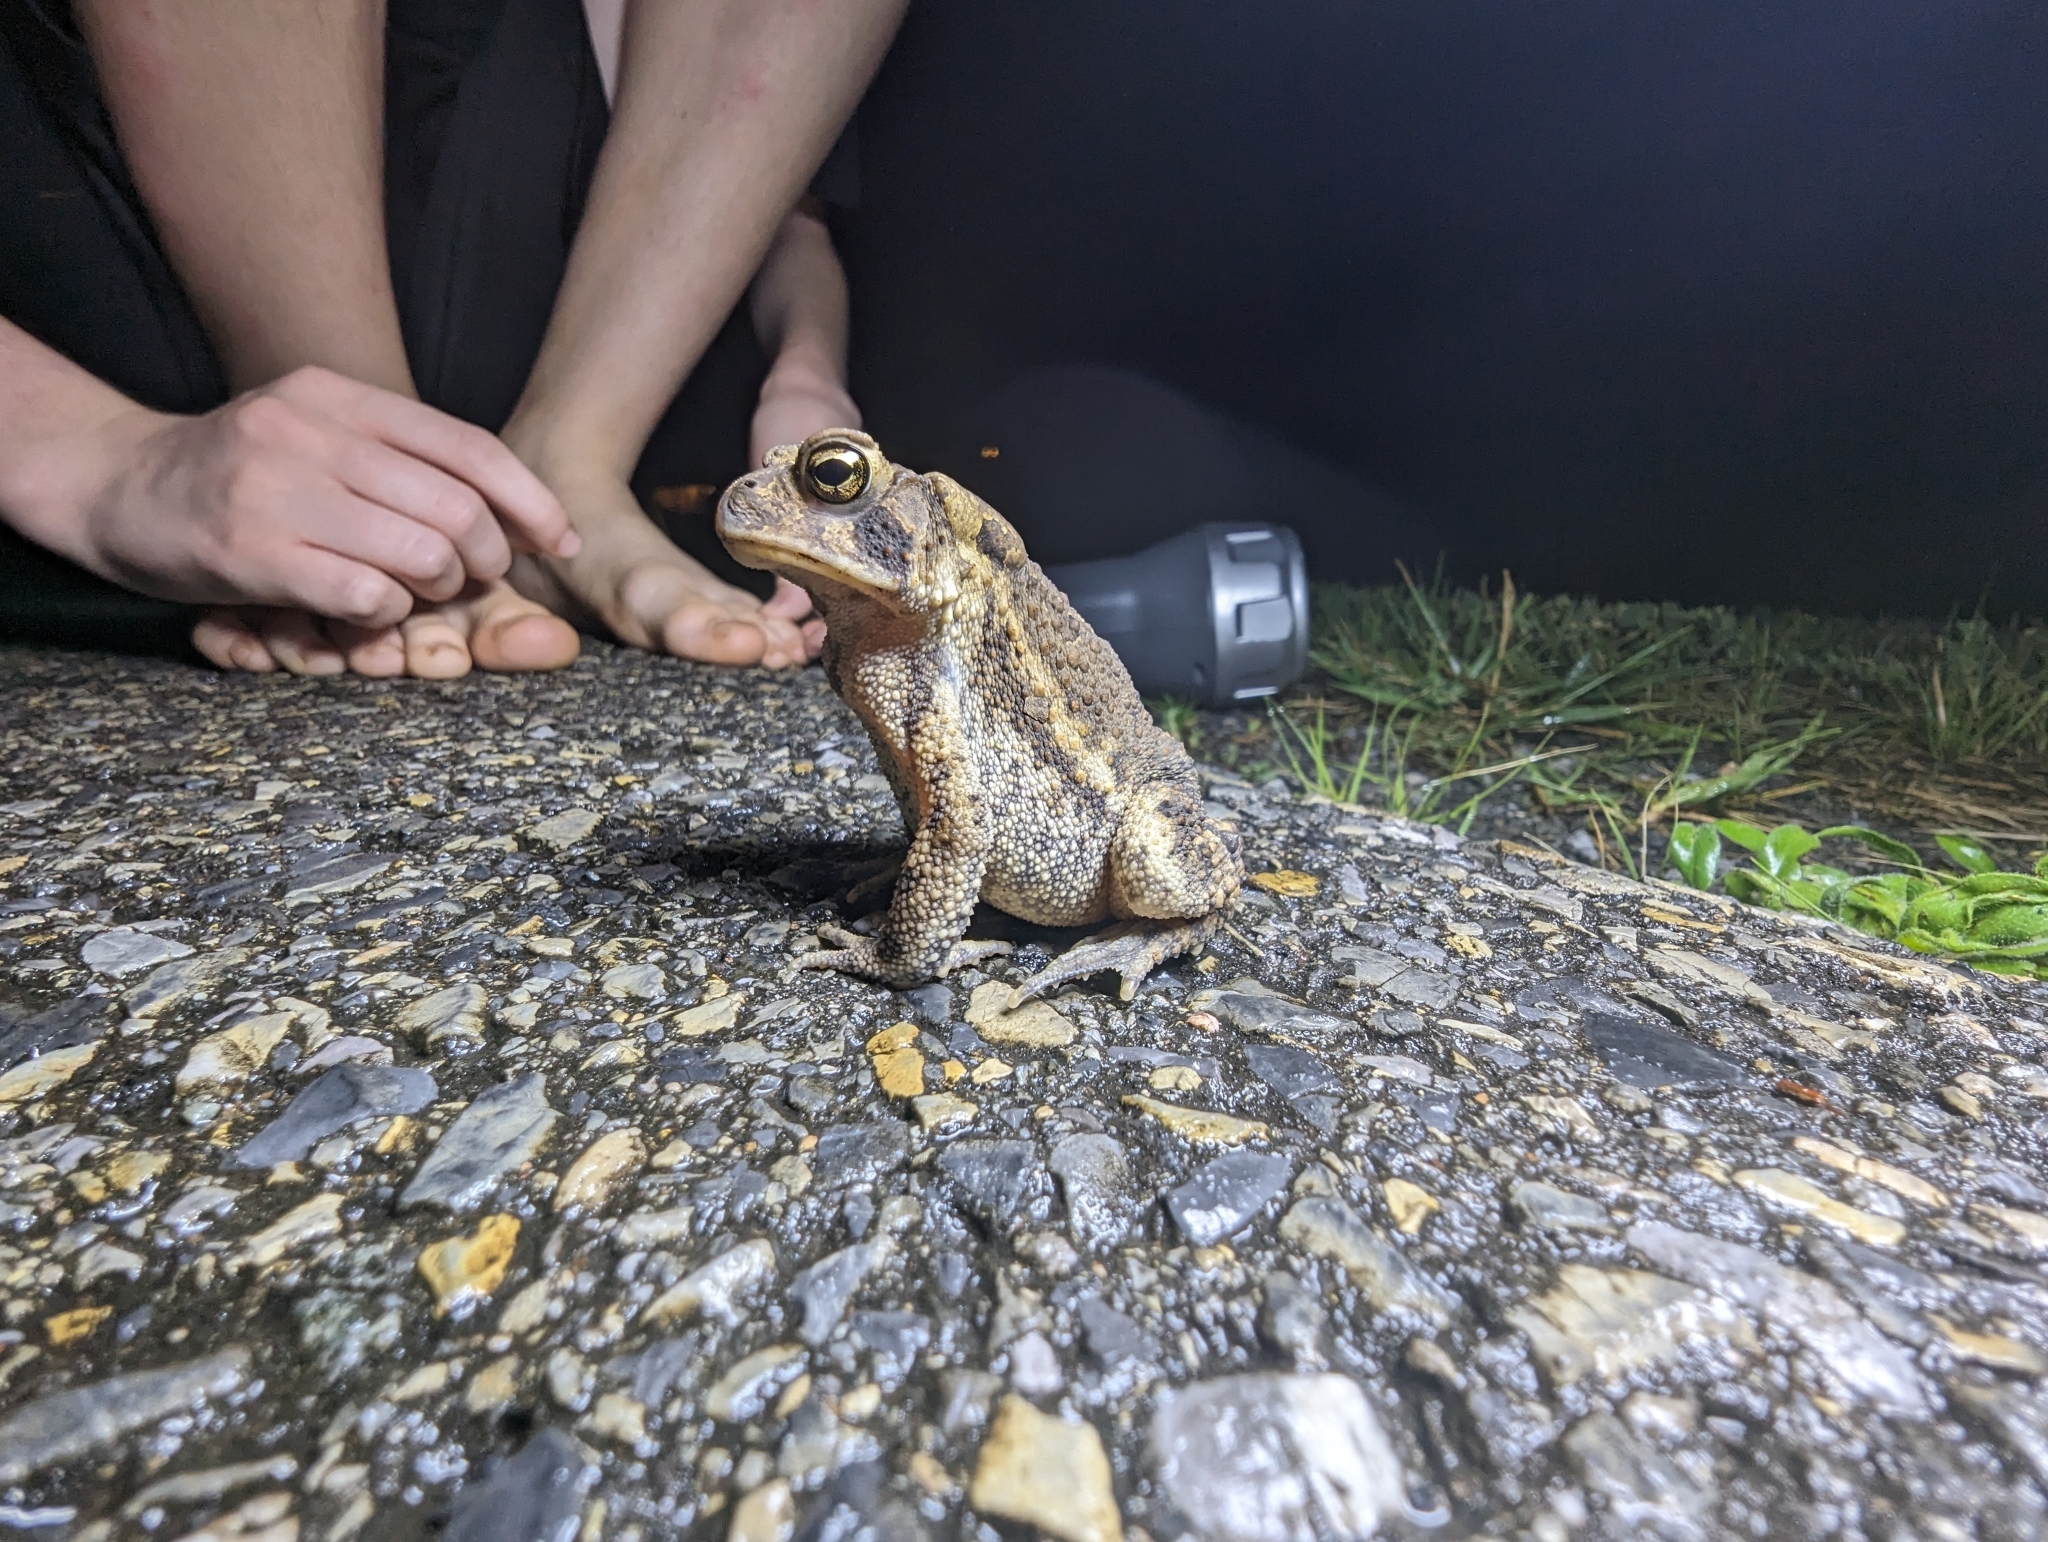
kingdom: Animalia
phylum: Chordata
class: Amphibia
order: Anura
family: Bufonidae
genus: Anaxyrus
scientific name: Anaxyrus americanus
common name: American toad
